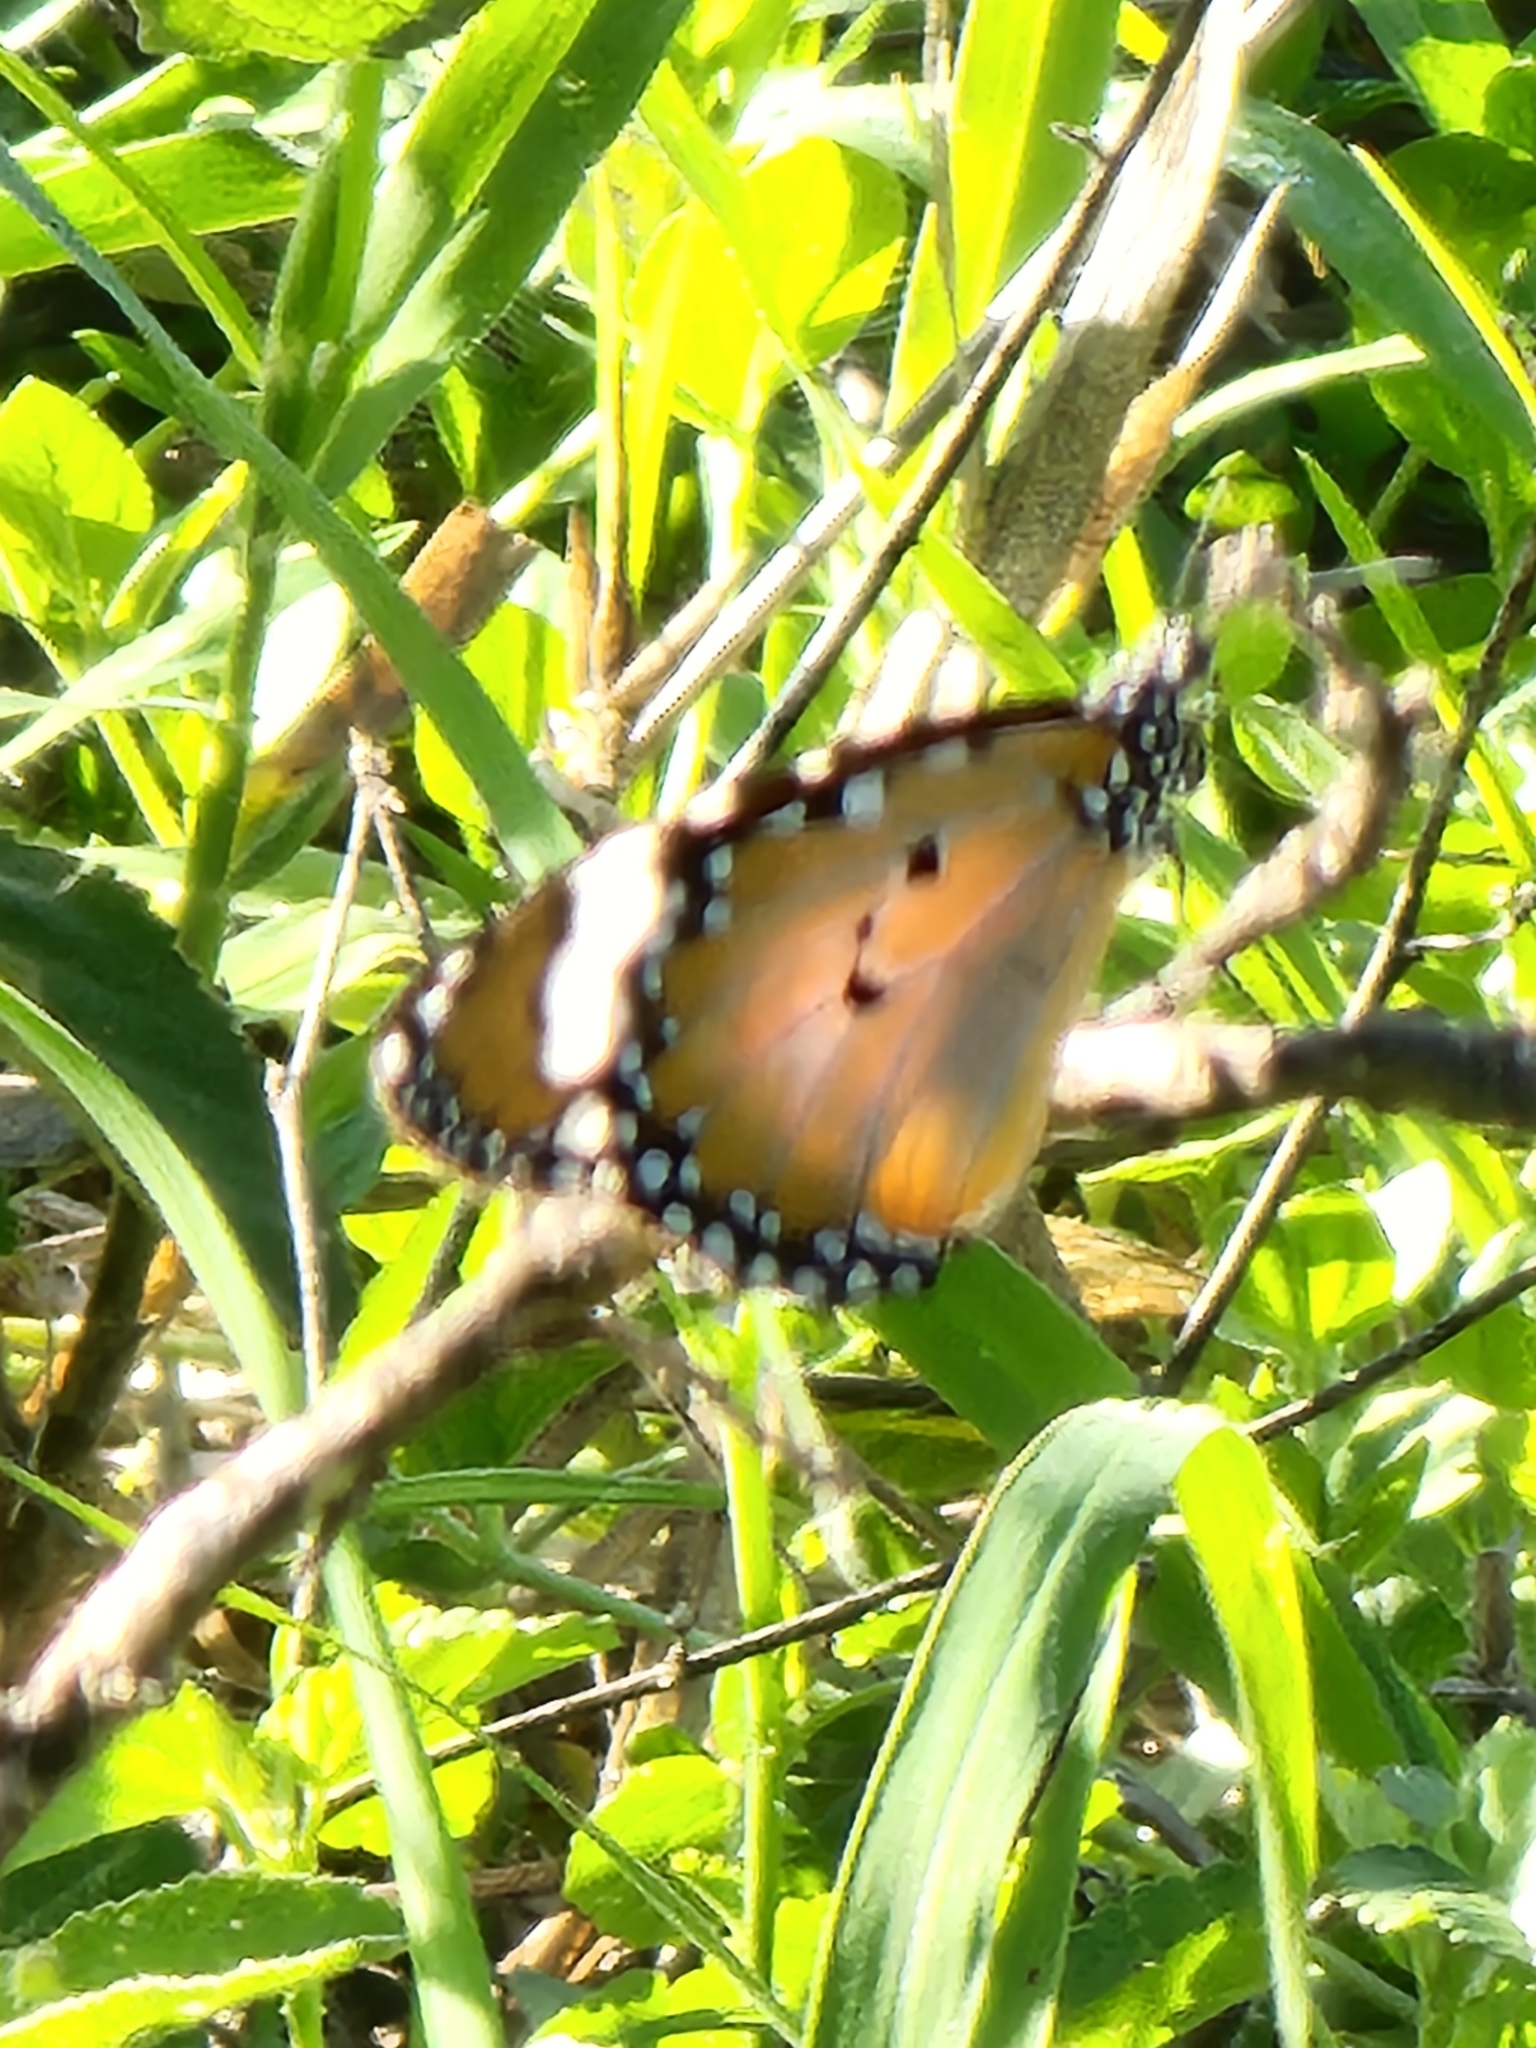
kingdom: Animalia
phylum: Arthropoda
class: Insecta
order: Lepidoptera
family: Nymphalidae
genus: Danaus
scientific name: Danaus chrysippus
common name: Plain tiger
